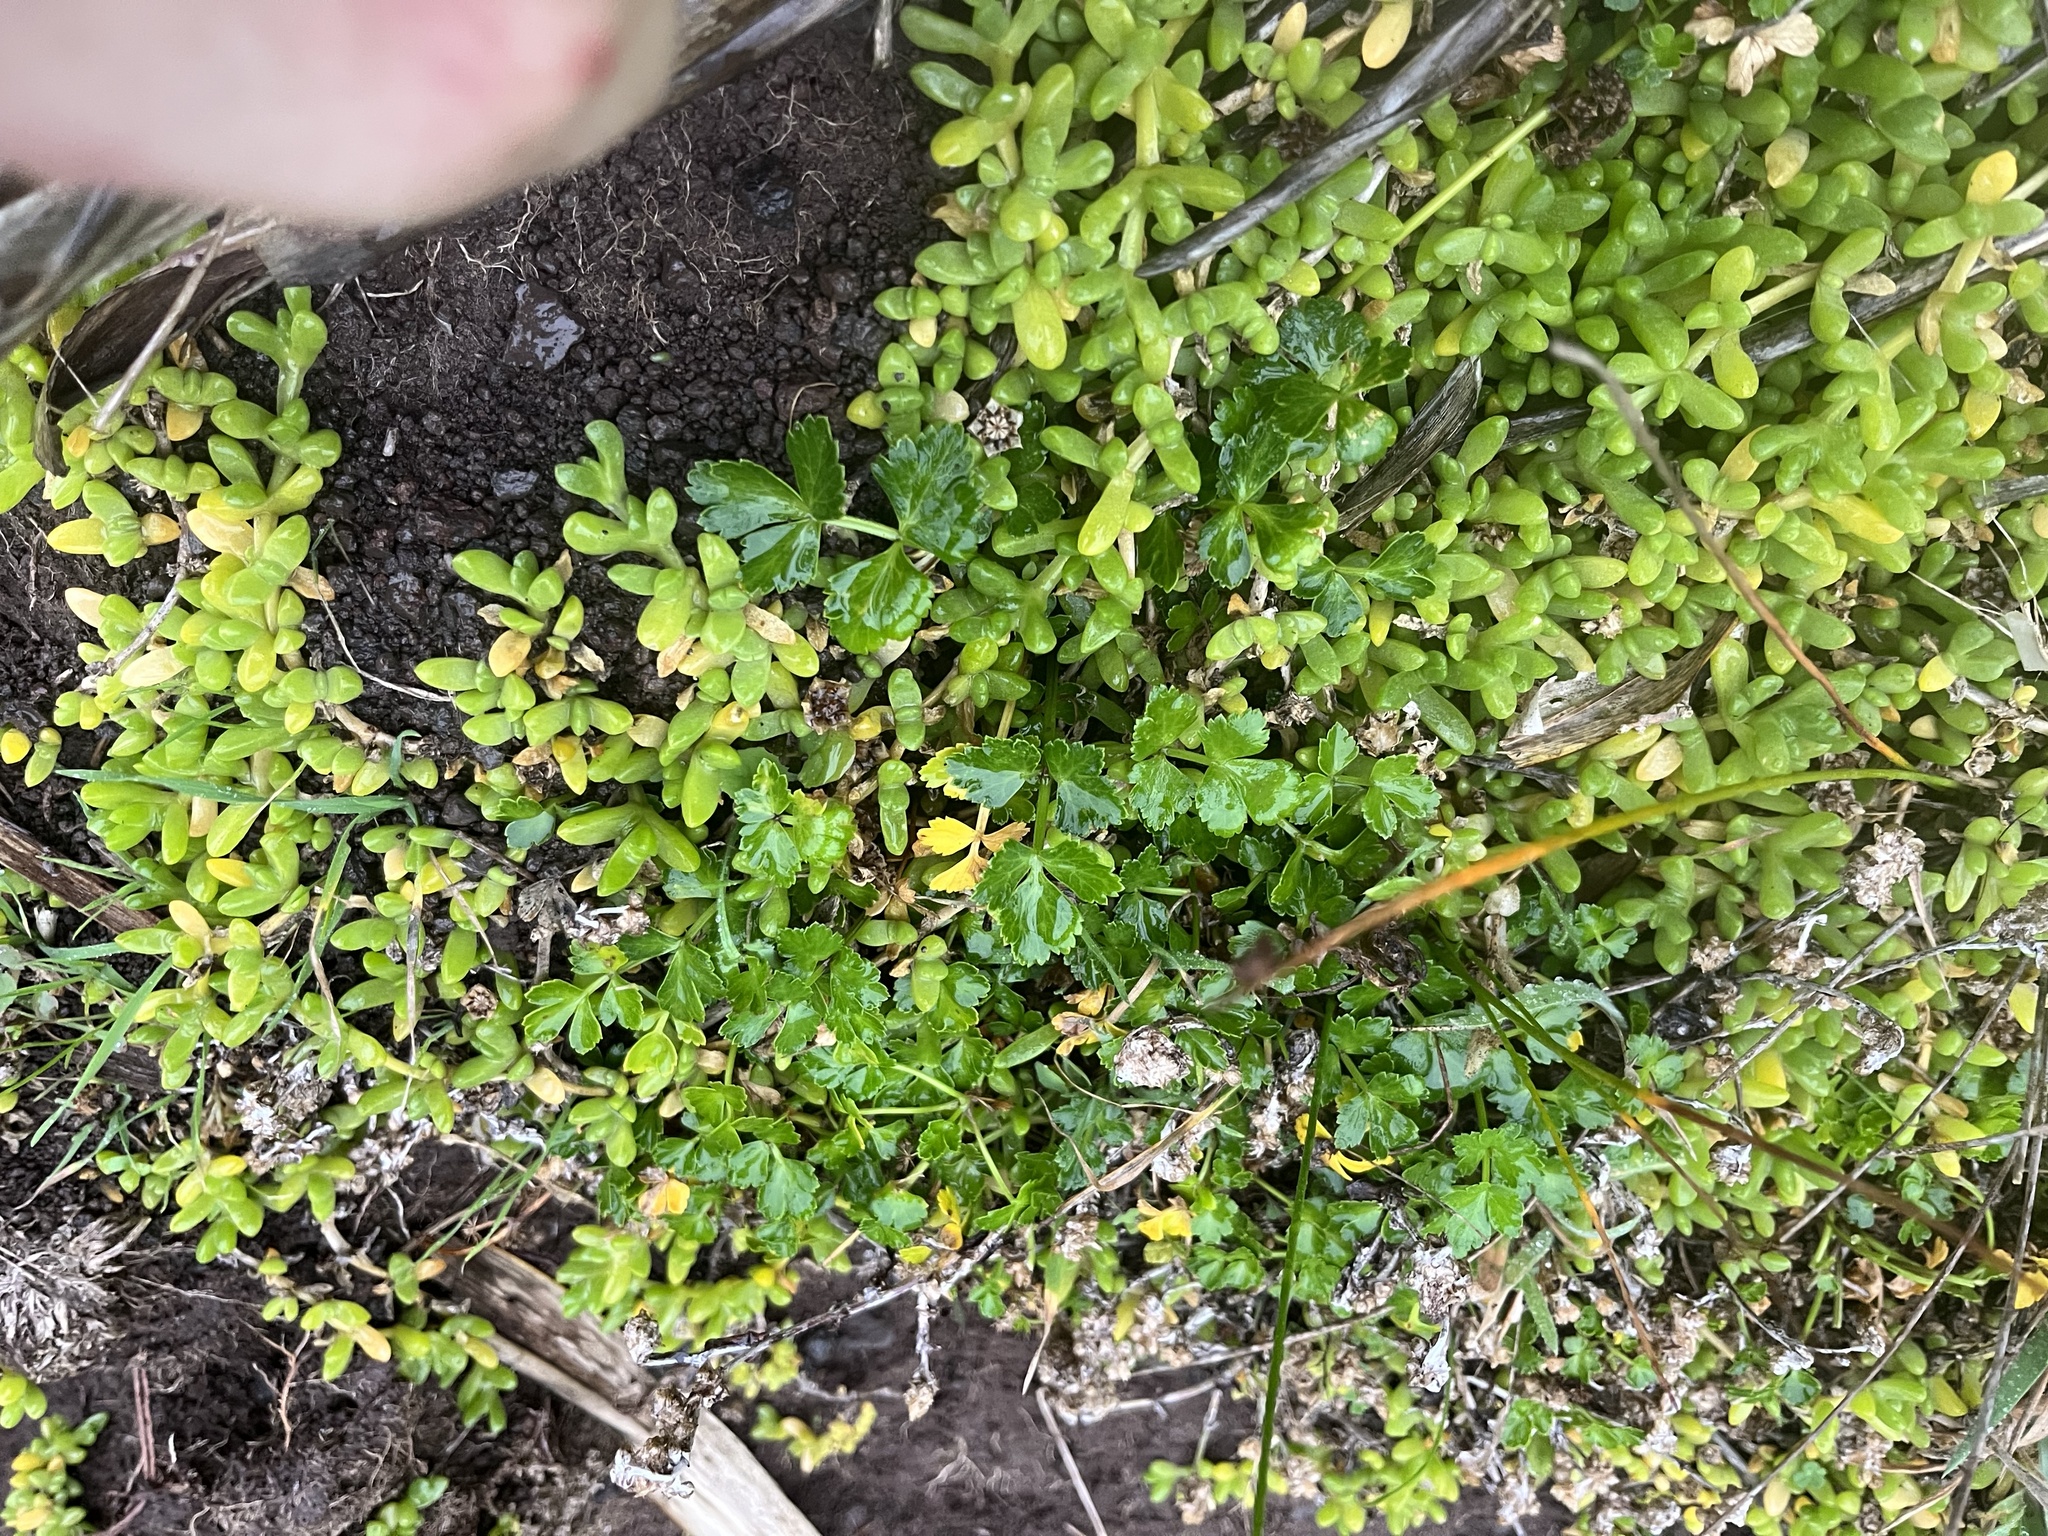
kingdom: Plantae
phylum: Tracheophyta
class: Magnoliopsida
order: Apiales
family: Apiaceae
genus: Apium
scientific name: Apium prostratum
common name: Prostrate marshwort
